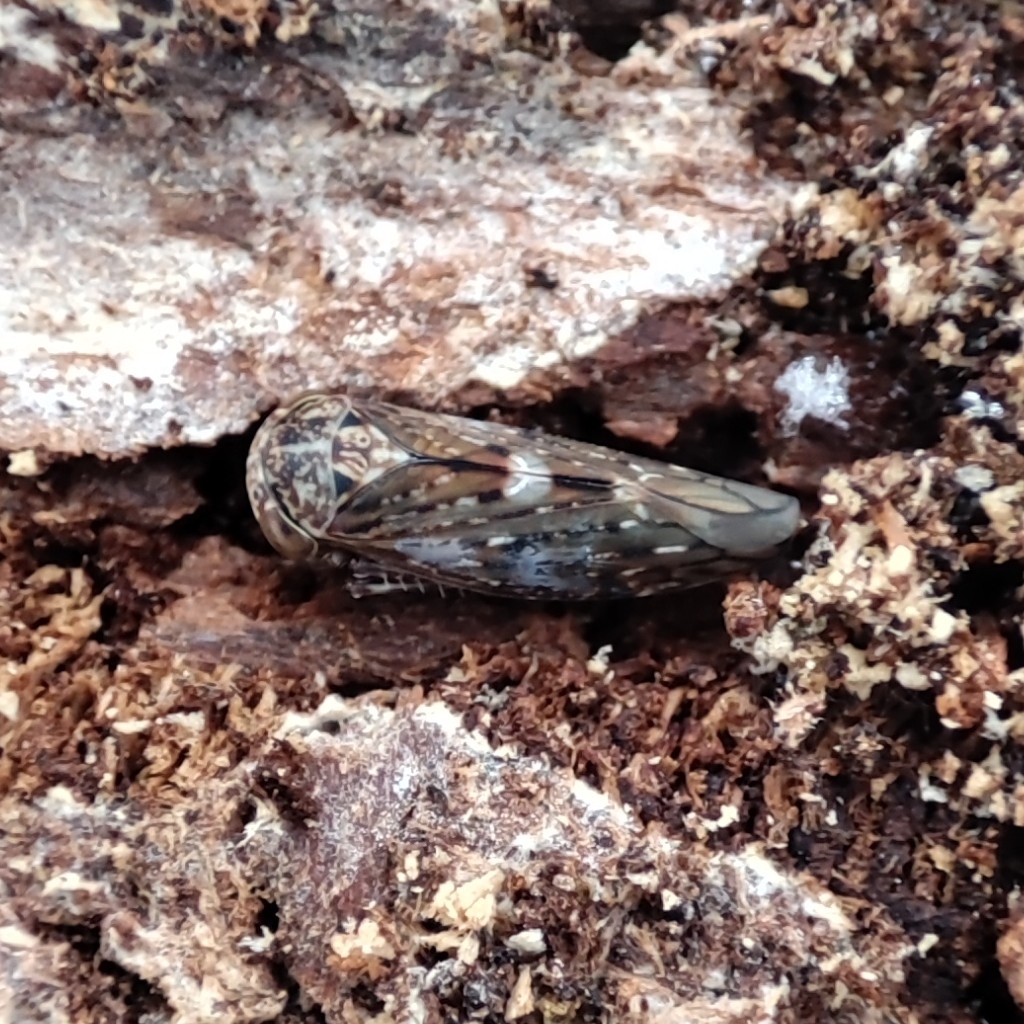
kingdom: Animalia
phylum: Arthropoda
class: Insecta
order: Hemiptera
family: Cicadellidae
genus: Acericerus
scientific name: Acericerus vittifrons
